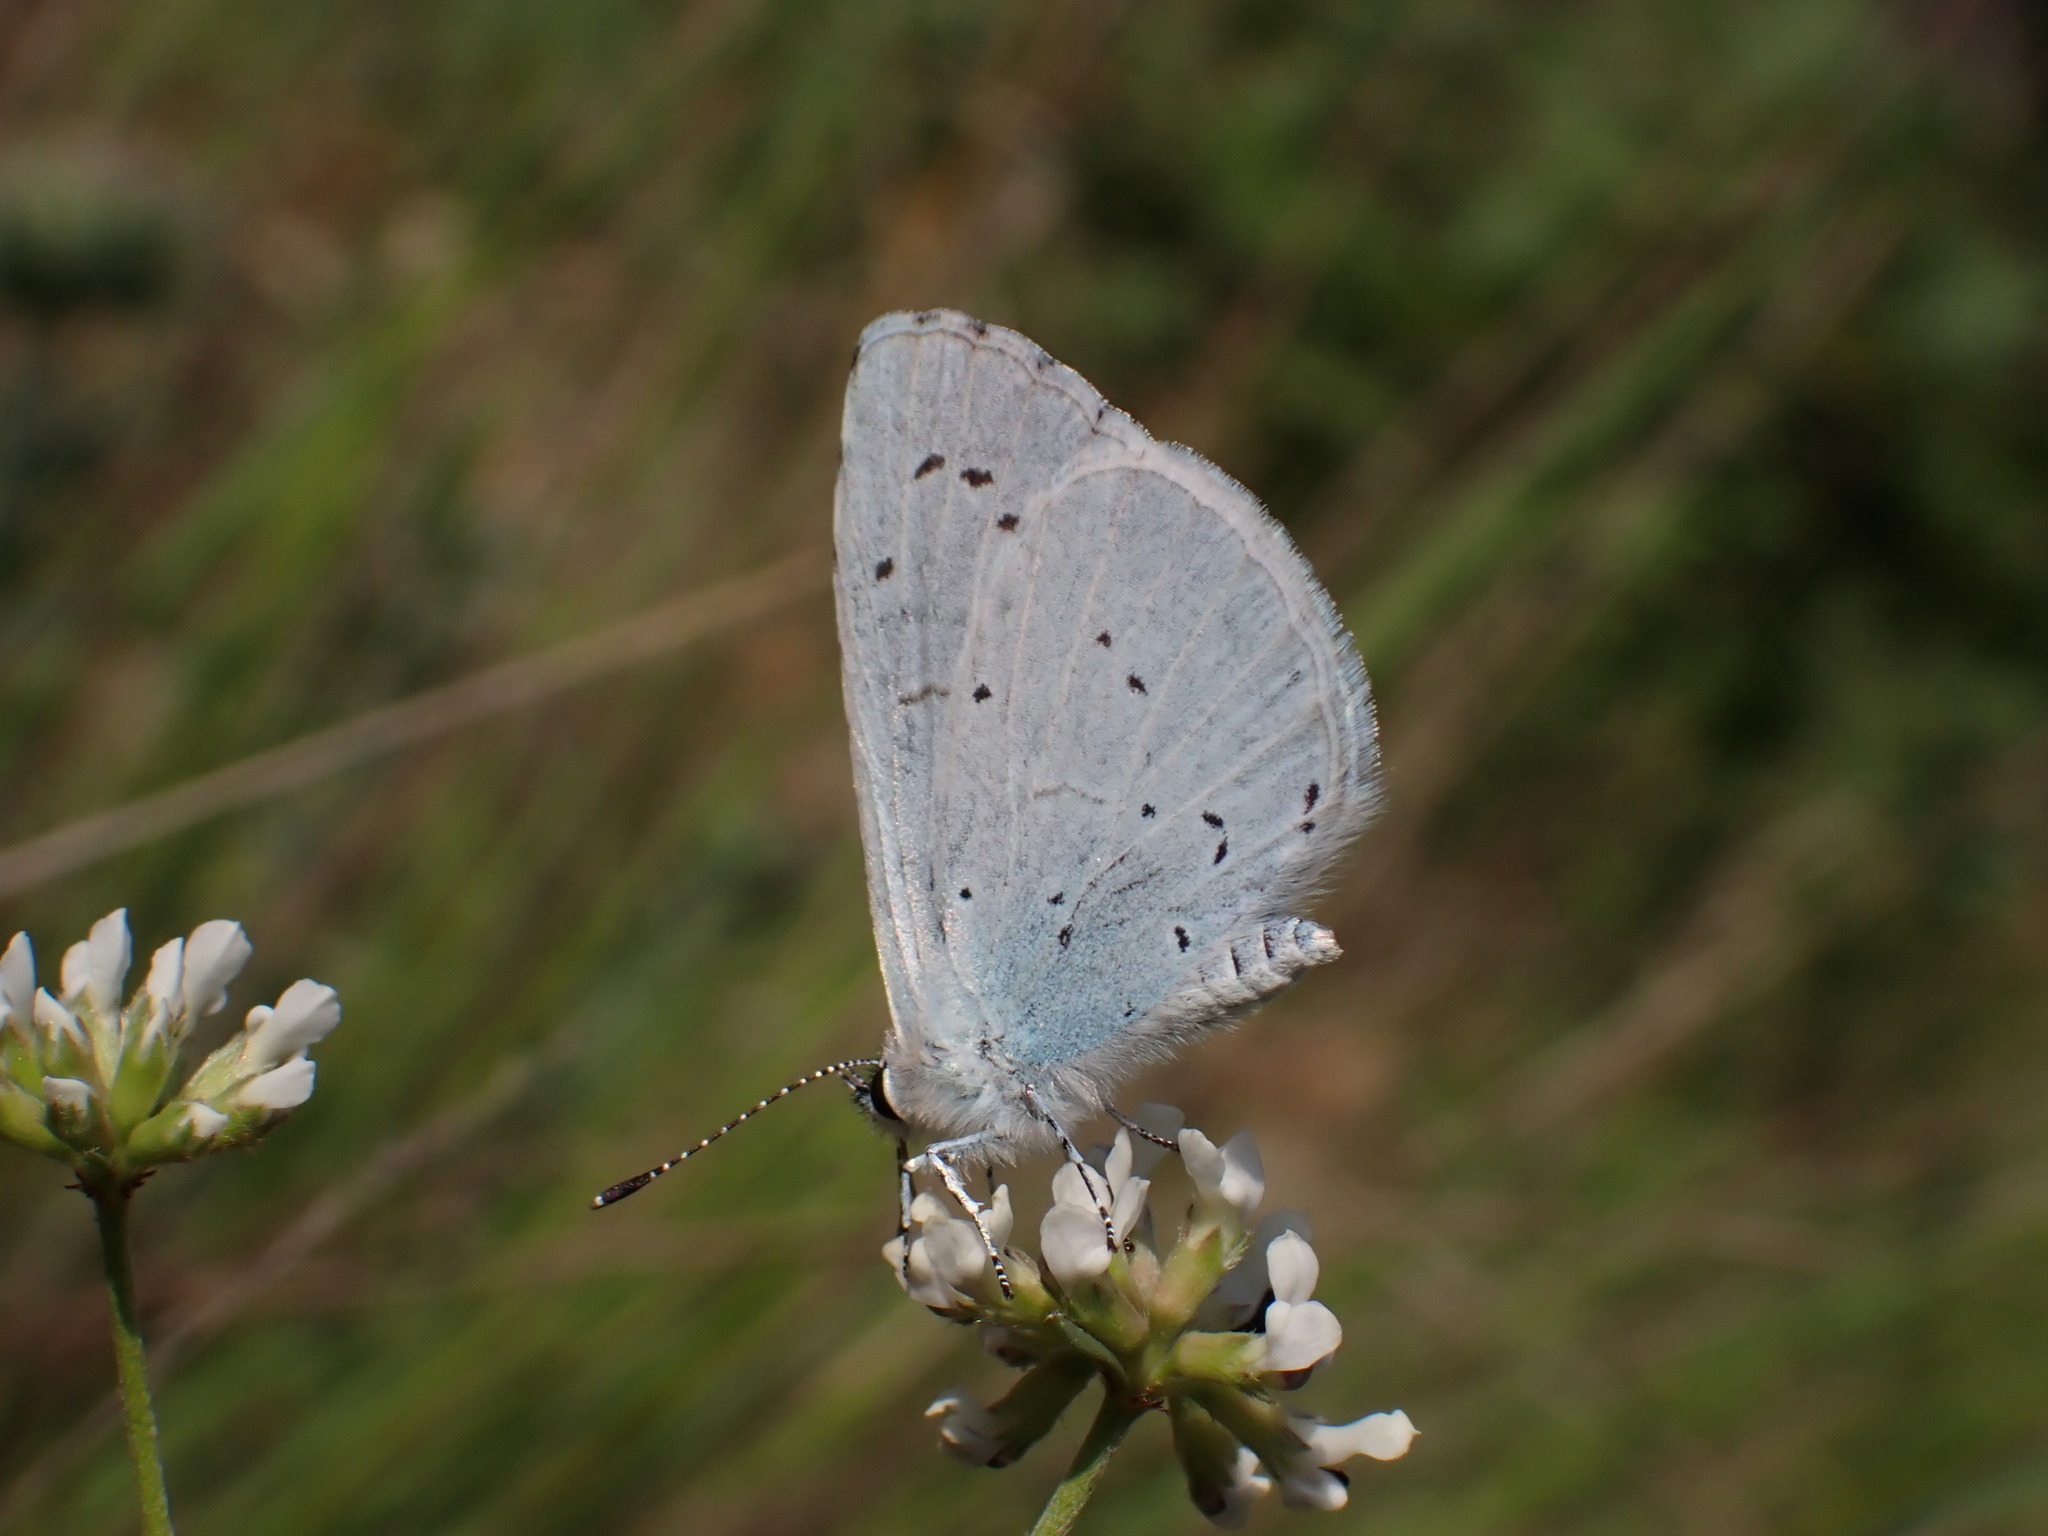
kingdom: Animalia
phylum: Arthropoda
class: Insecta
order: Lepidoptera
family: Lycaenidae
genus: Celastrina
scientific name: Celastrina argiolus
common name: Holly blue
